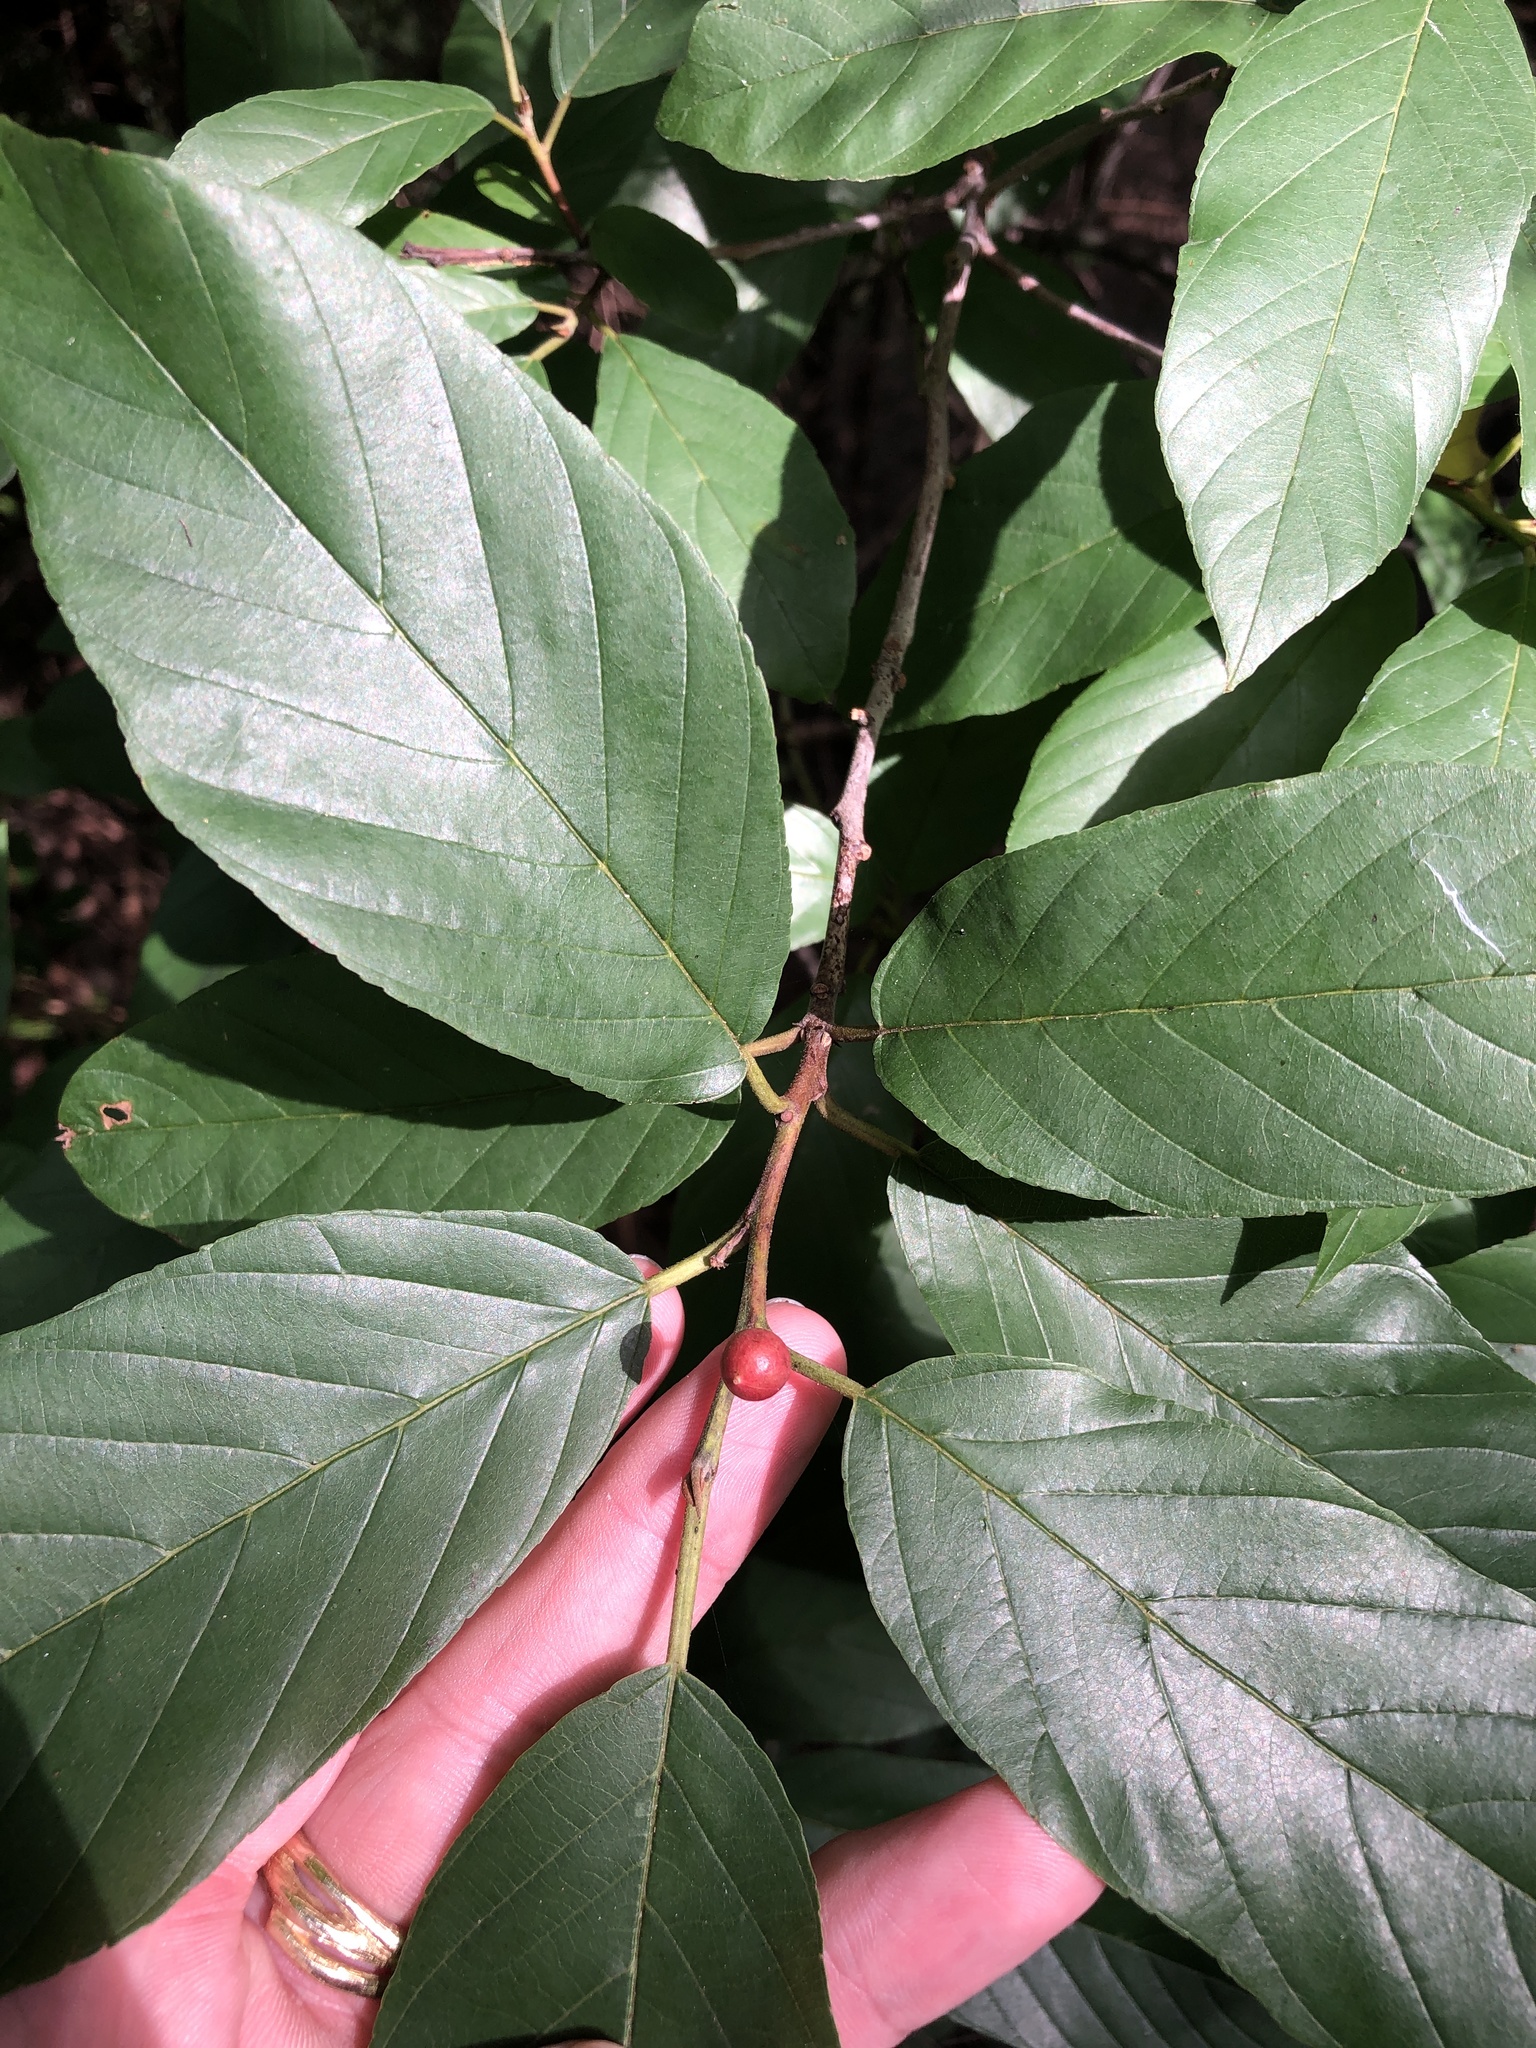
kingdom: Plantae
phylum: Tracheophyta
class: Magnoliopsida
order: Rosales
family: Rhamnaceae
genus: Frangula
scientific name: Frangula caroliniana
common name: Carolina buckthorn
